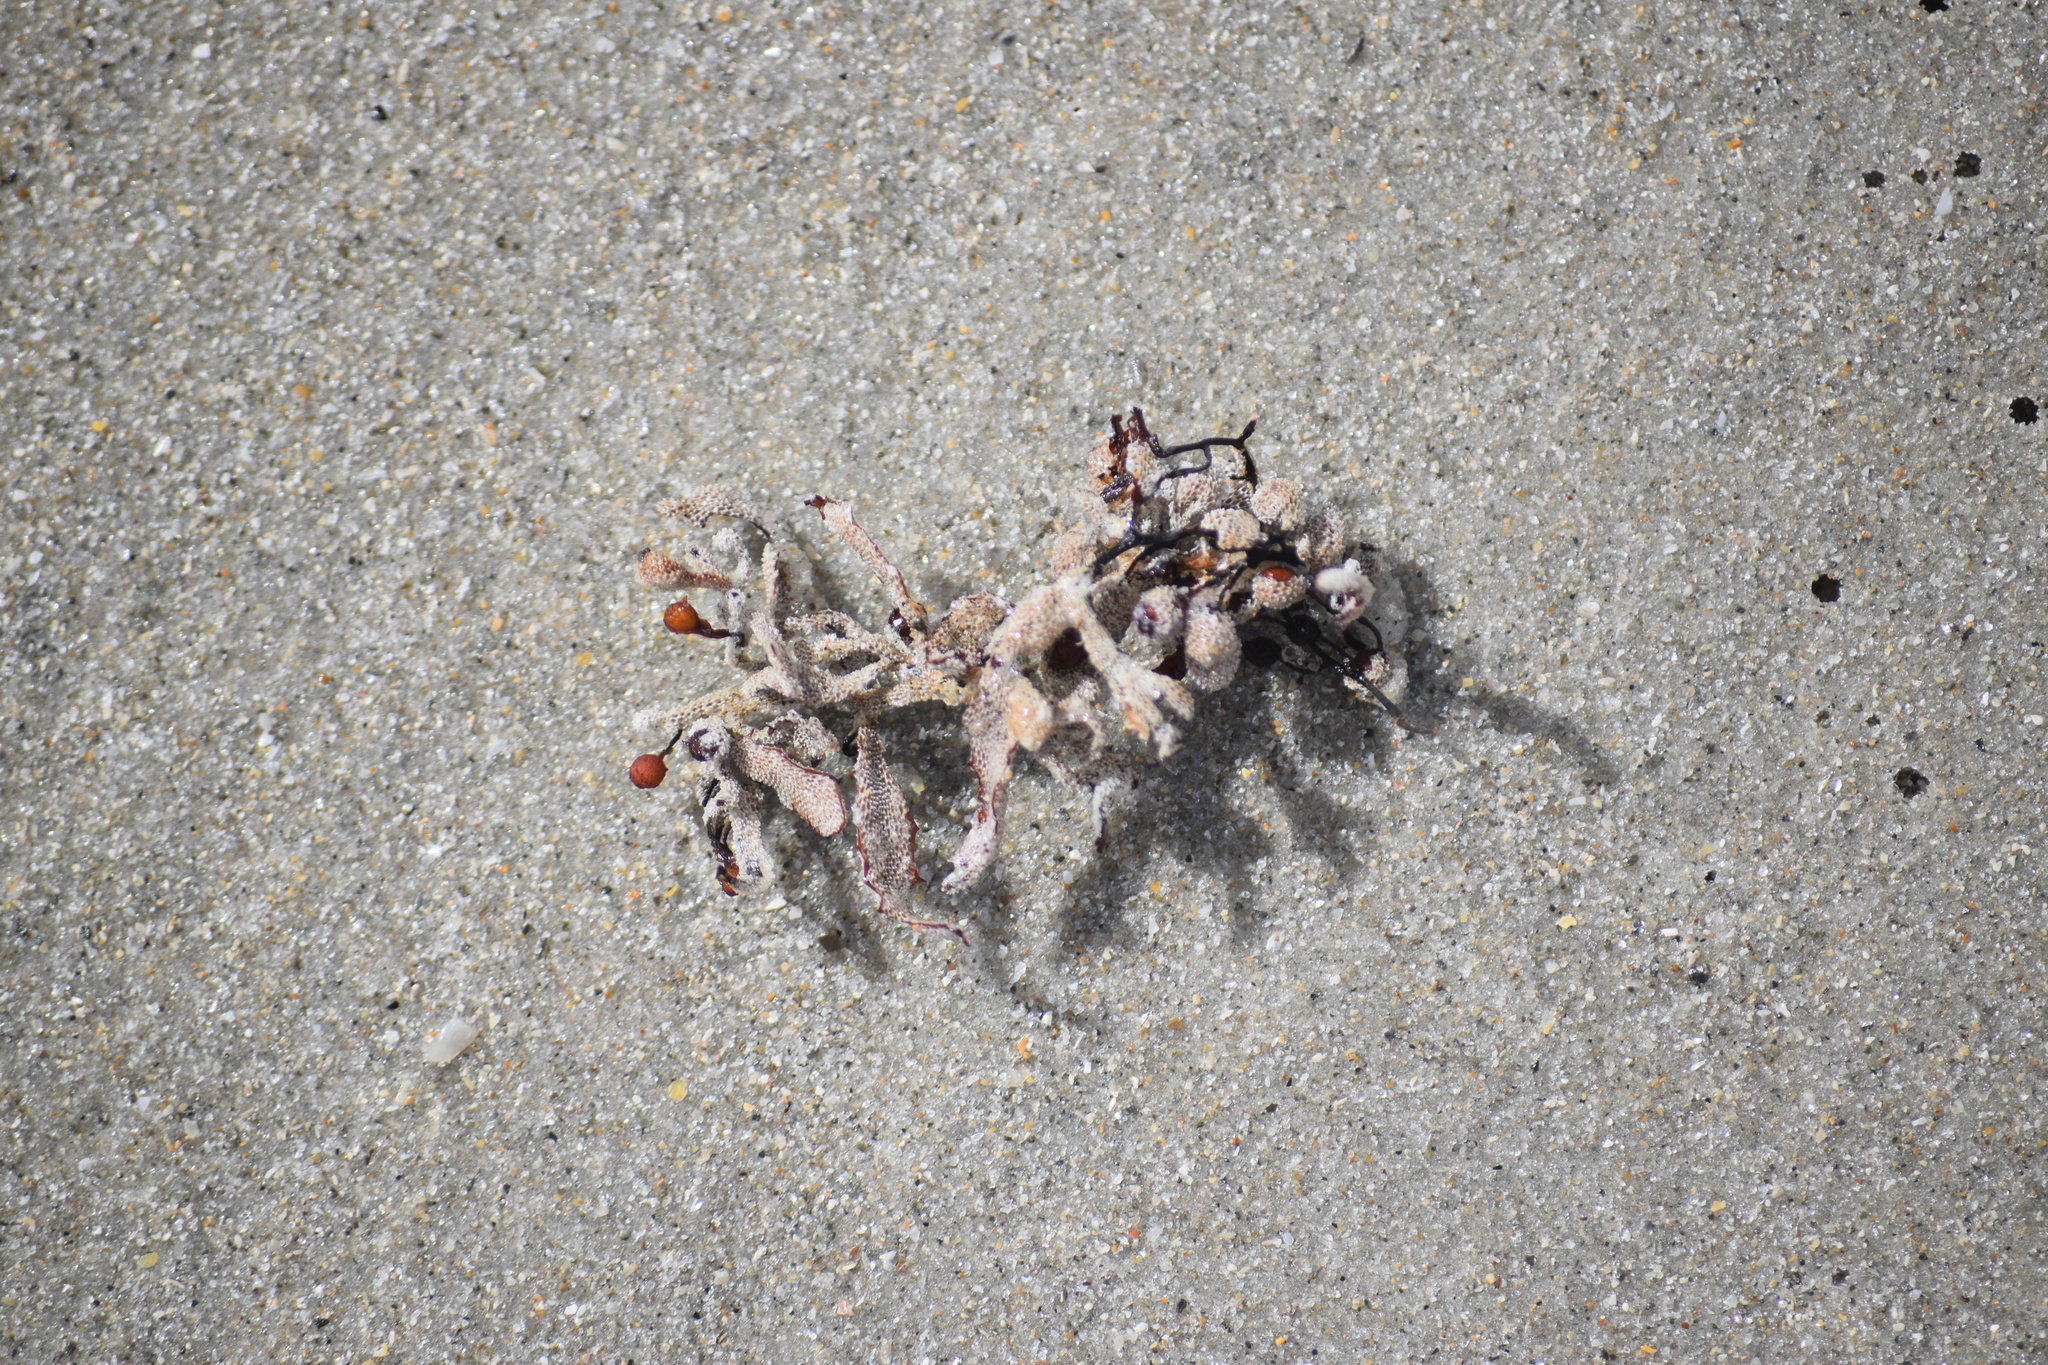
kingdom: Chromista
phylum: Ochrophyta
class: Phaeophyceae
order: Fucales
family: Sargassaceae
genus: Sargassum
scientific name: Sargassum fluitans
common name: Sargassum seaweed
